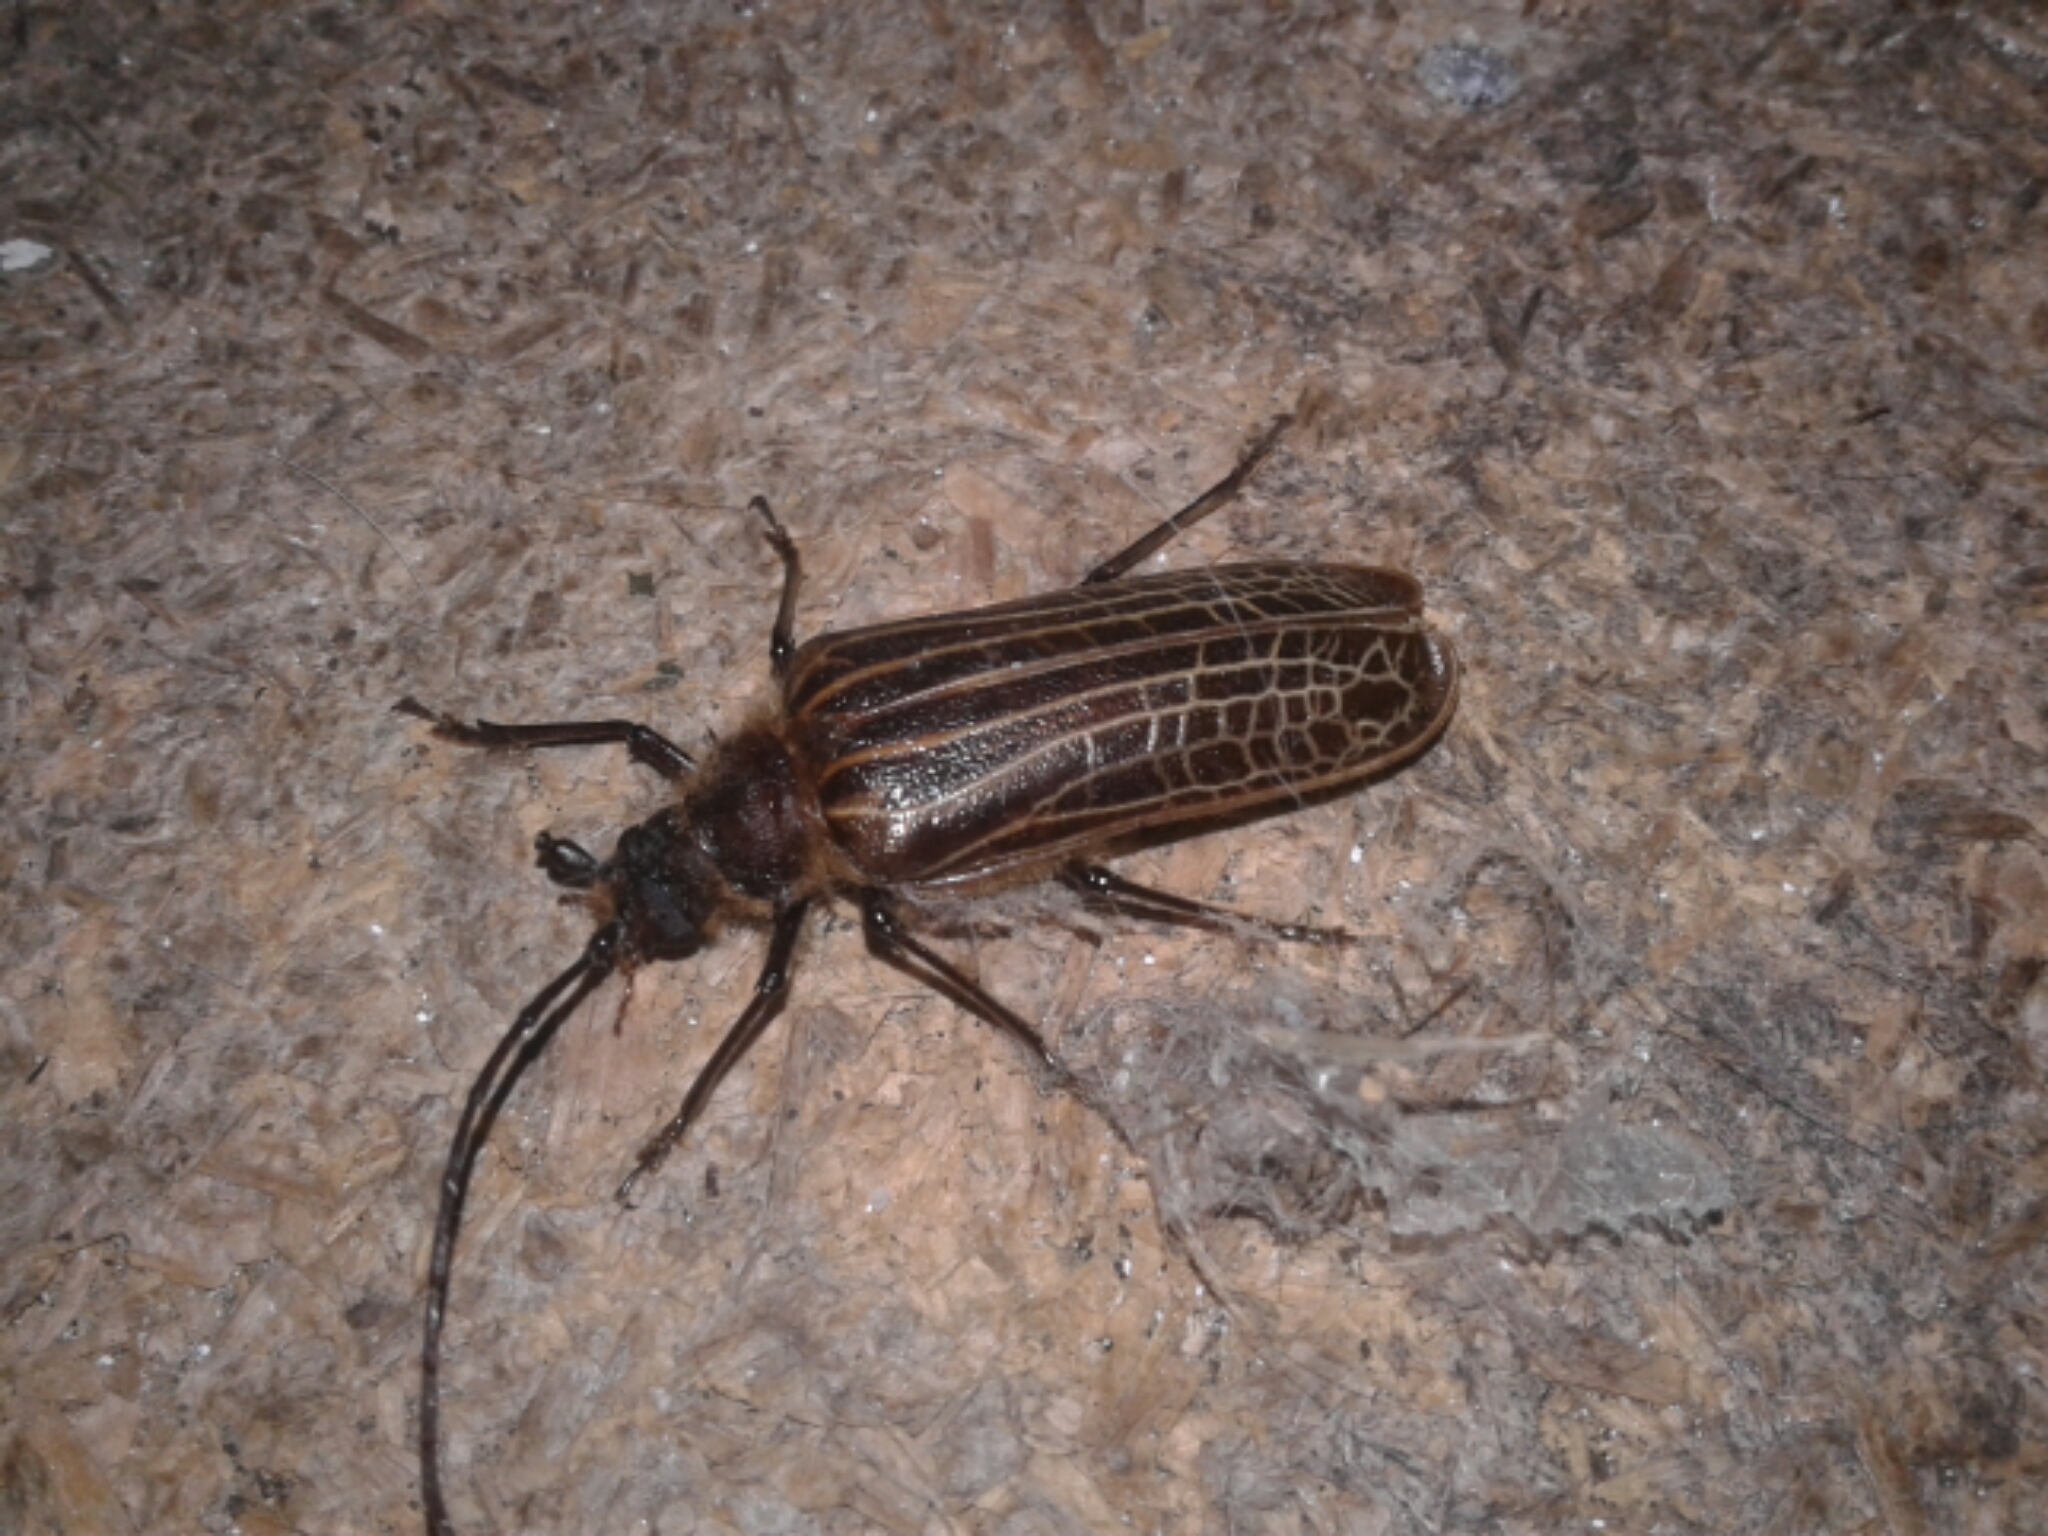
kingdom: Animalia
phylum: Arthropoda
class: Insecta
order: Coleoptera
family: Cerambycidae
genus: Prionoplus
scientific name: Prionoplus reticularis
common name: Huhu beetle
